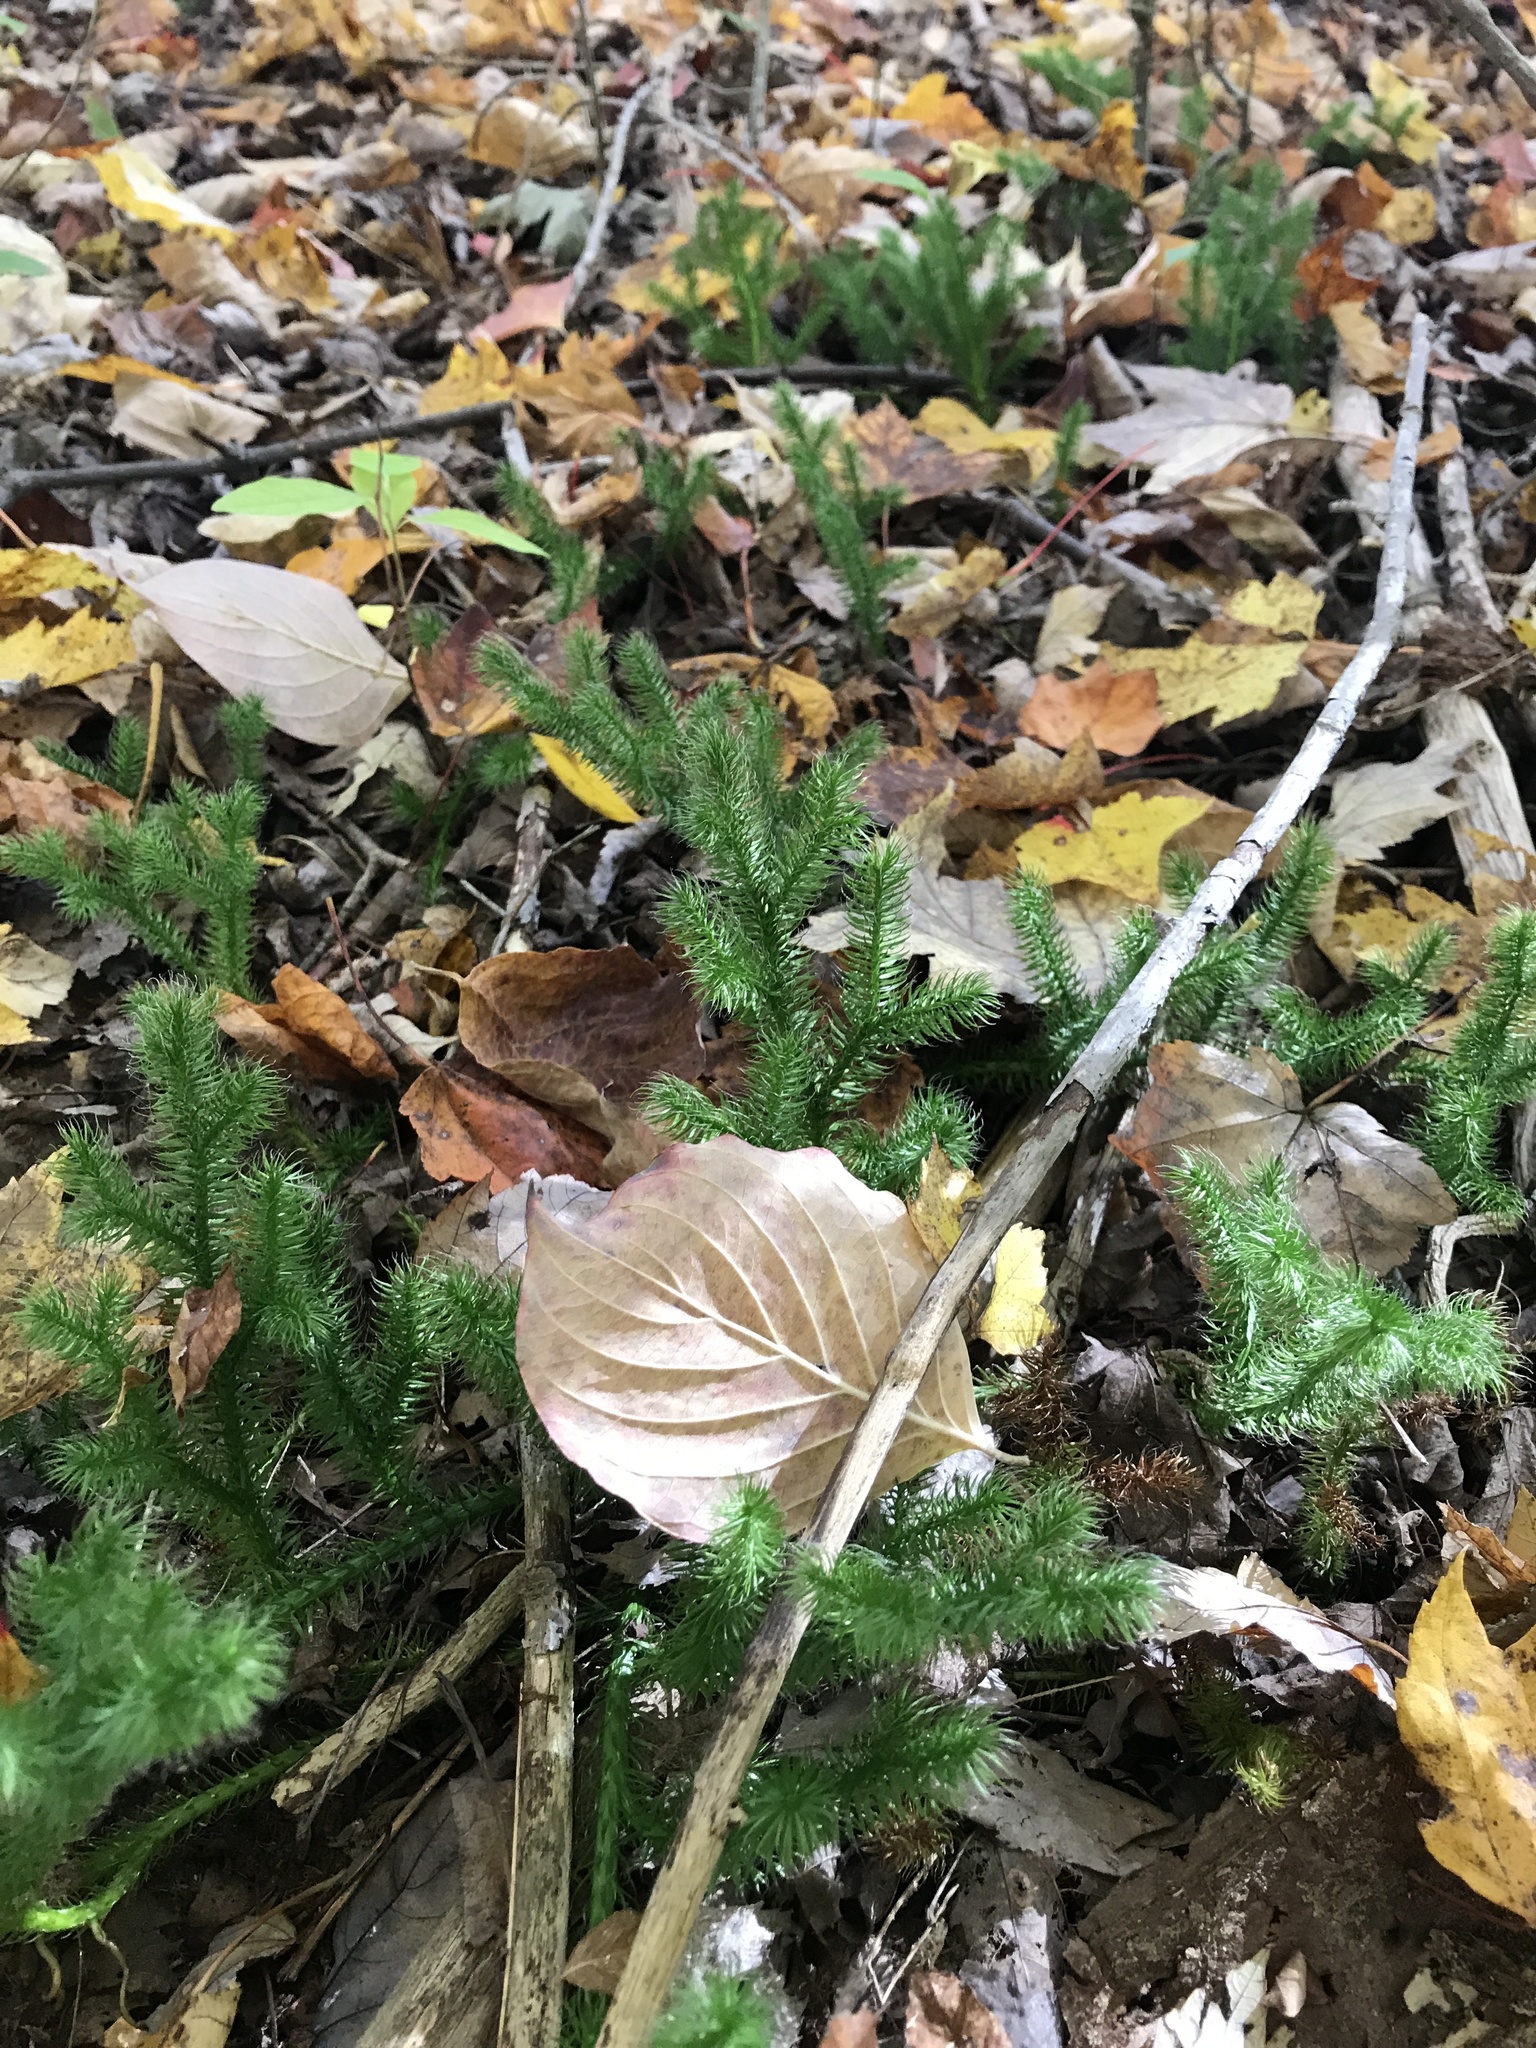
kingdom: Plantae
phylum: Tracheophyta
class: Lycopodiopsida
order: Lycopodiales
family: Lycopodiaceae
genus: Lycopodium
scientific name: Lycopodium clavatum
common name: Stag's-horn clubmoss
